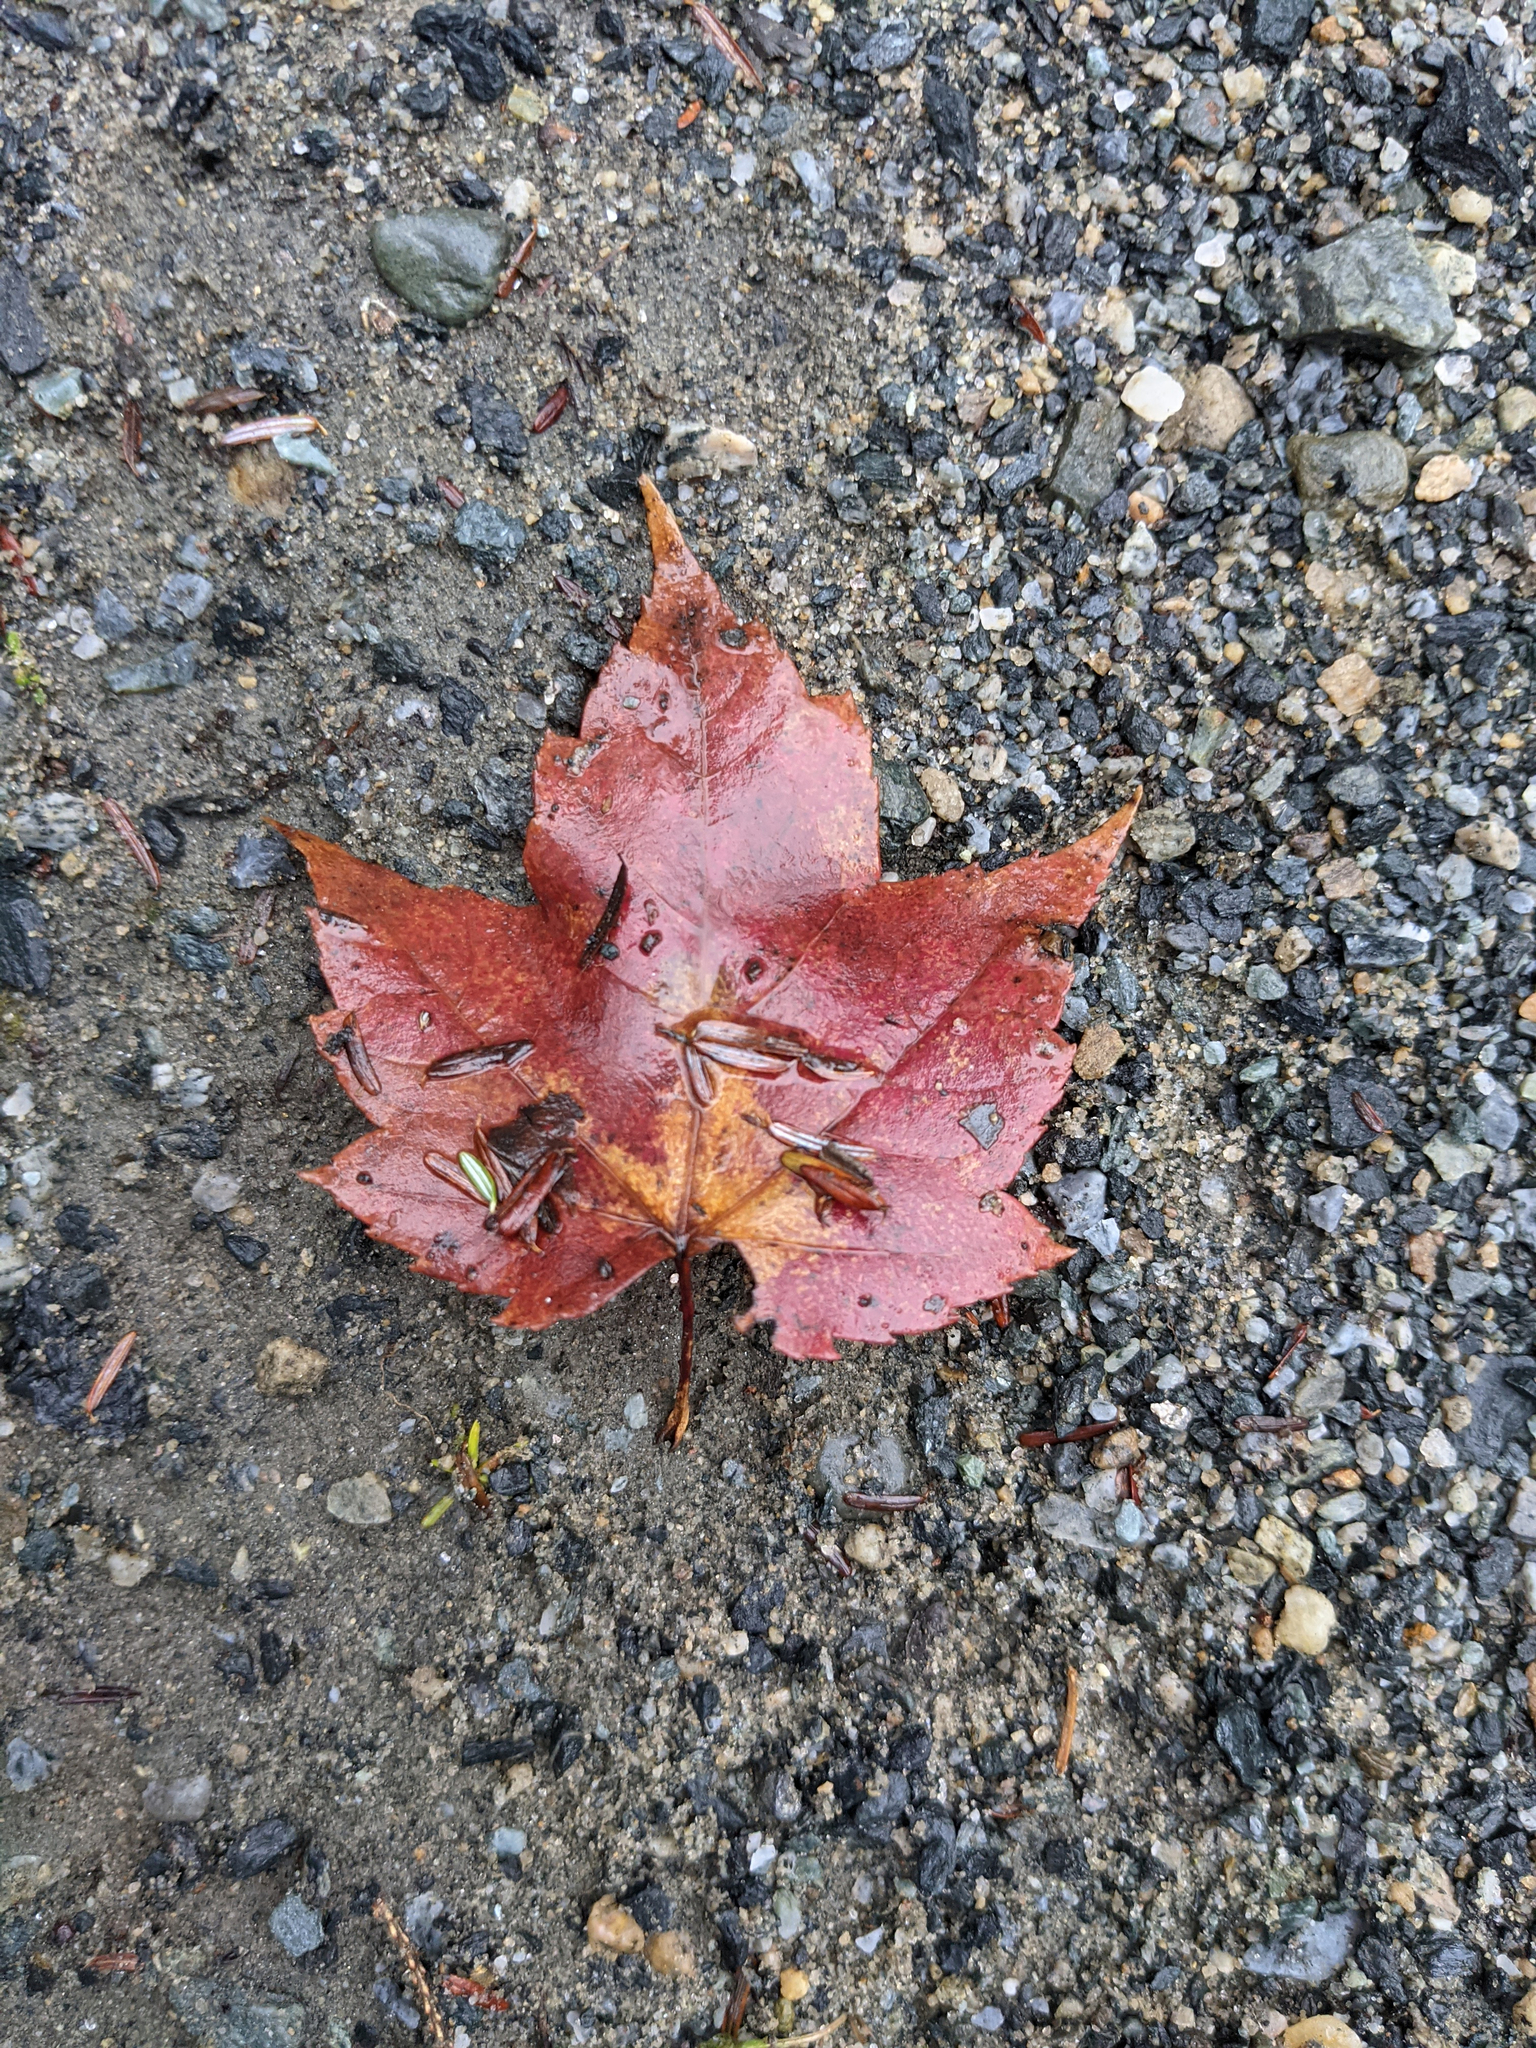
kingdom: Plantae
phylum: Tracheophyta
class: Magnoliopsida
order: Sapindales
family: Sapindaceae
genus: Acer
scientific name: Acer rubrum
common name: Red maple
